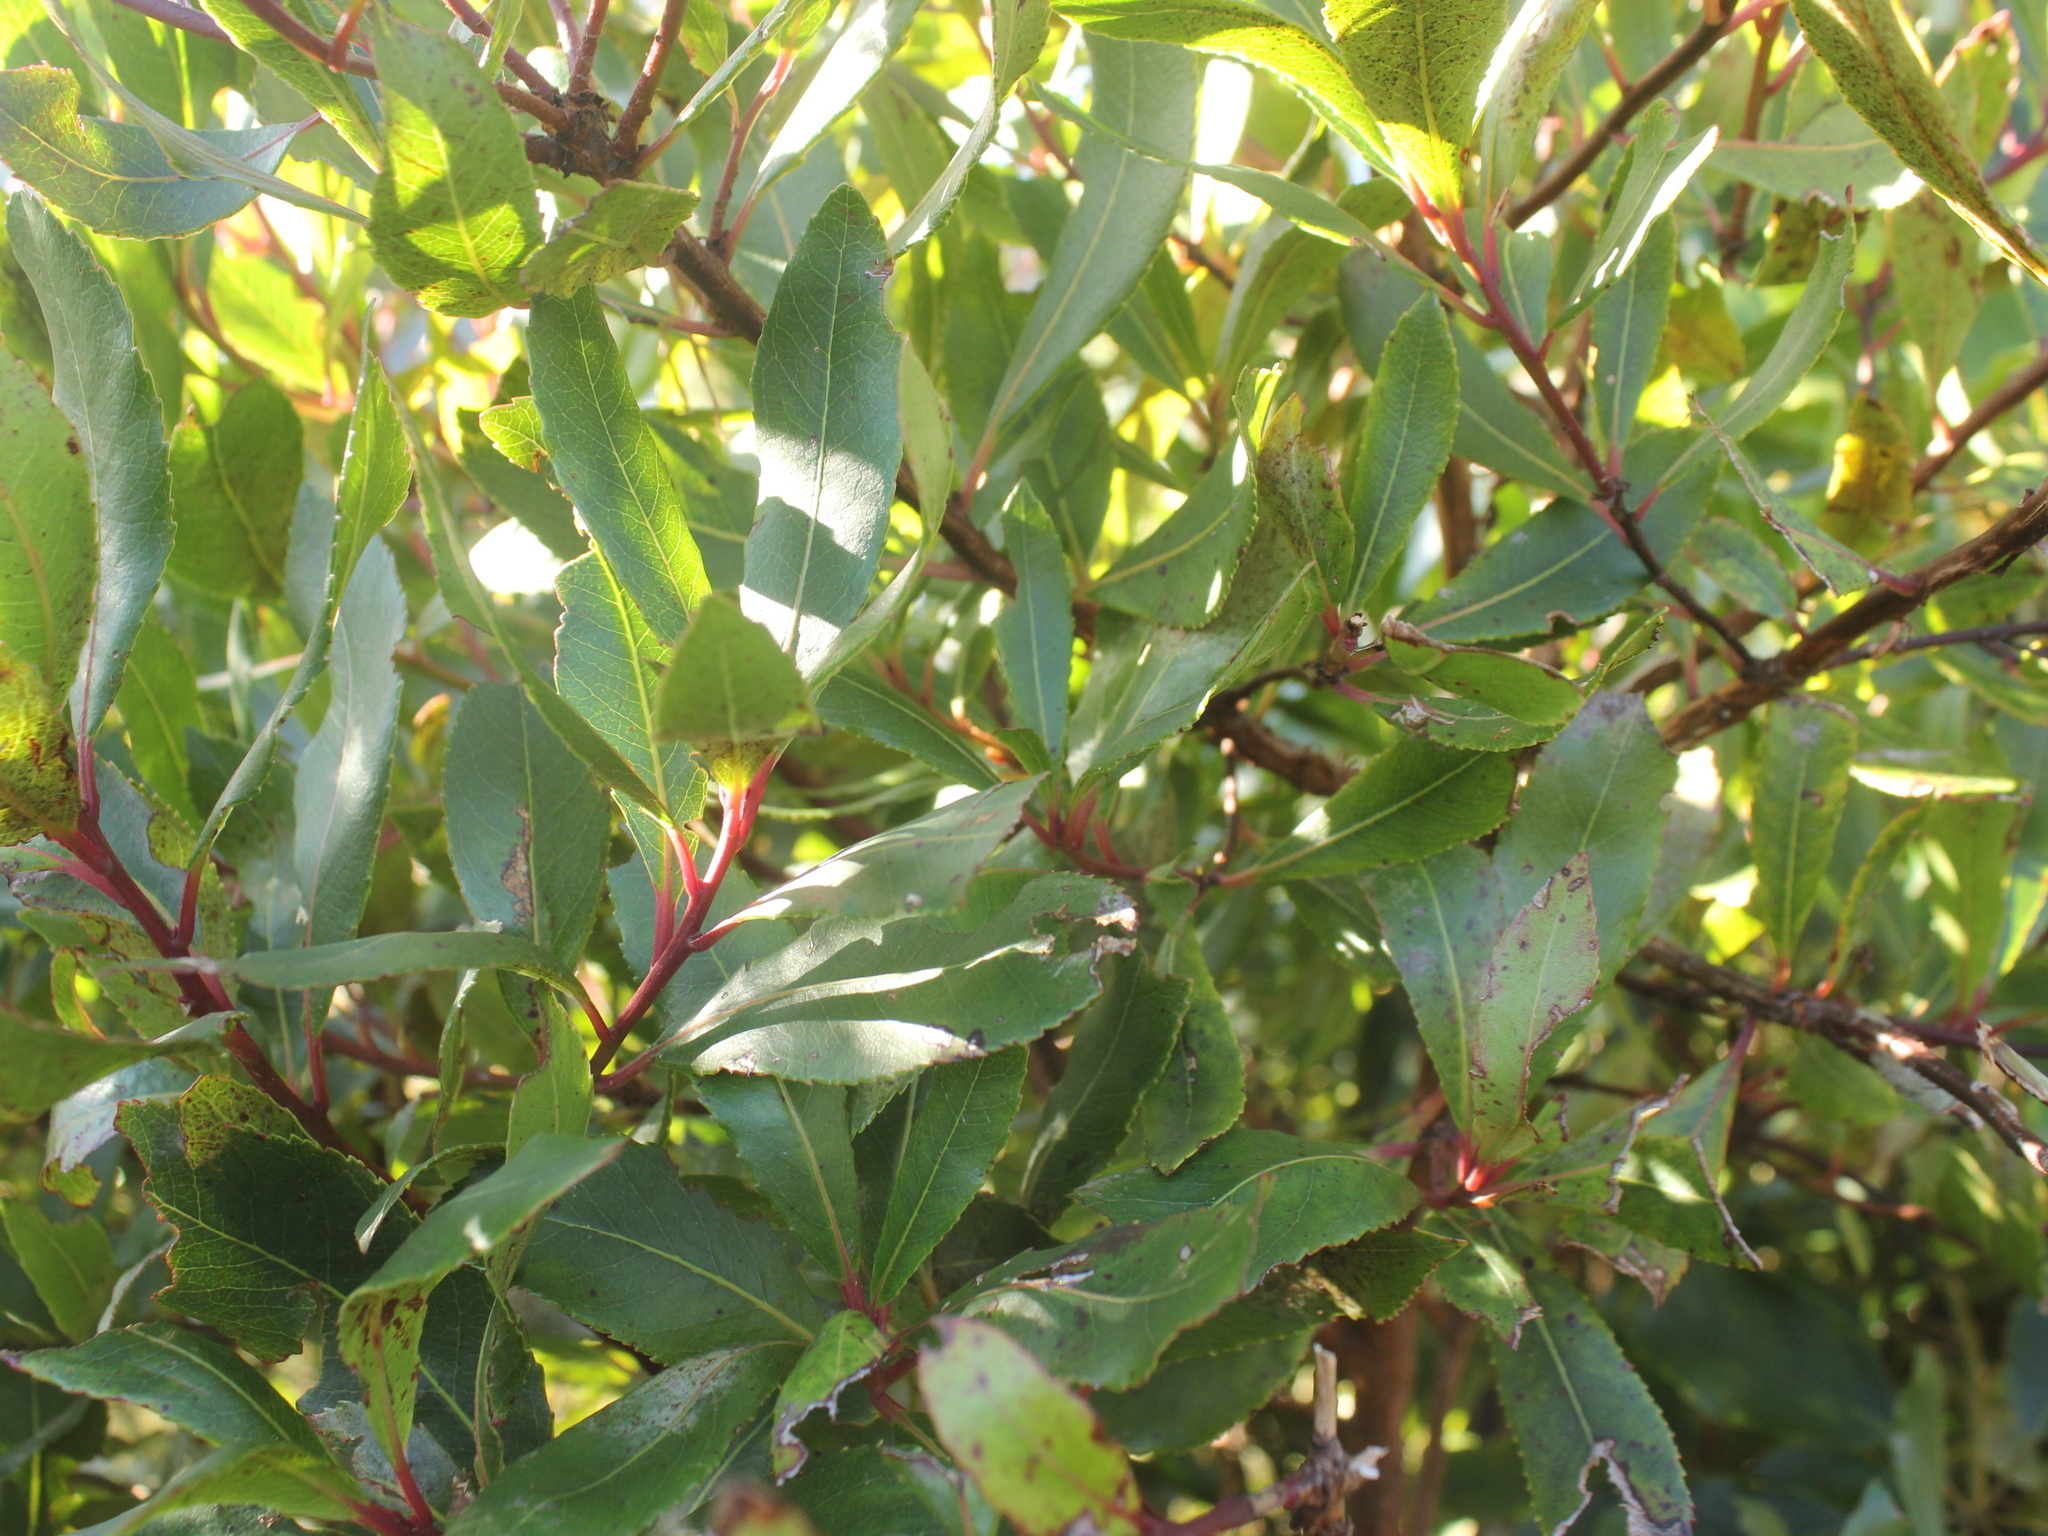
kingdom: Plantae
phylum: Tracheophyta
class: Magnoliopsida
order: Ericales
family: Ericaceae
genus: Arbutus
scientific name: Arbutus unedo
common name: Strawberry-tree
